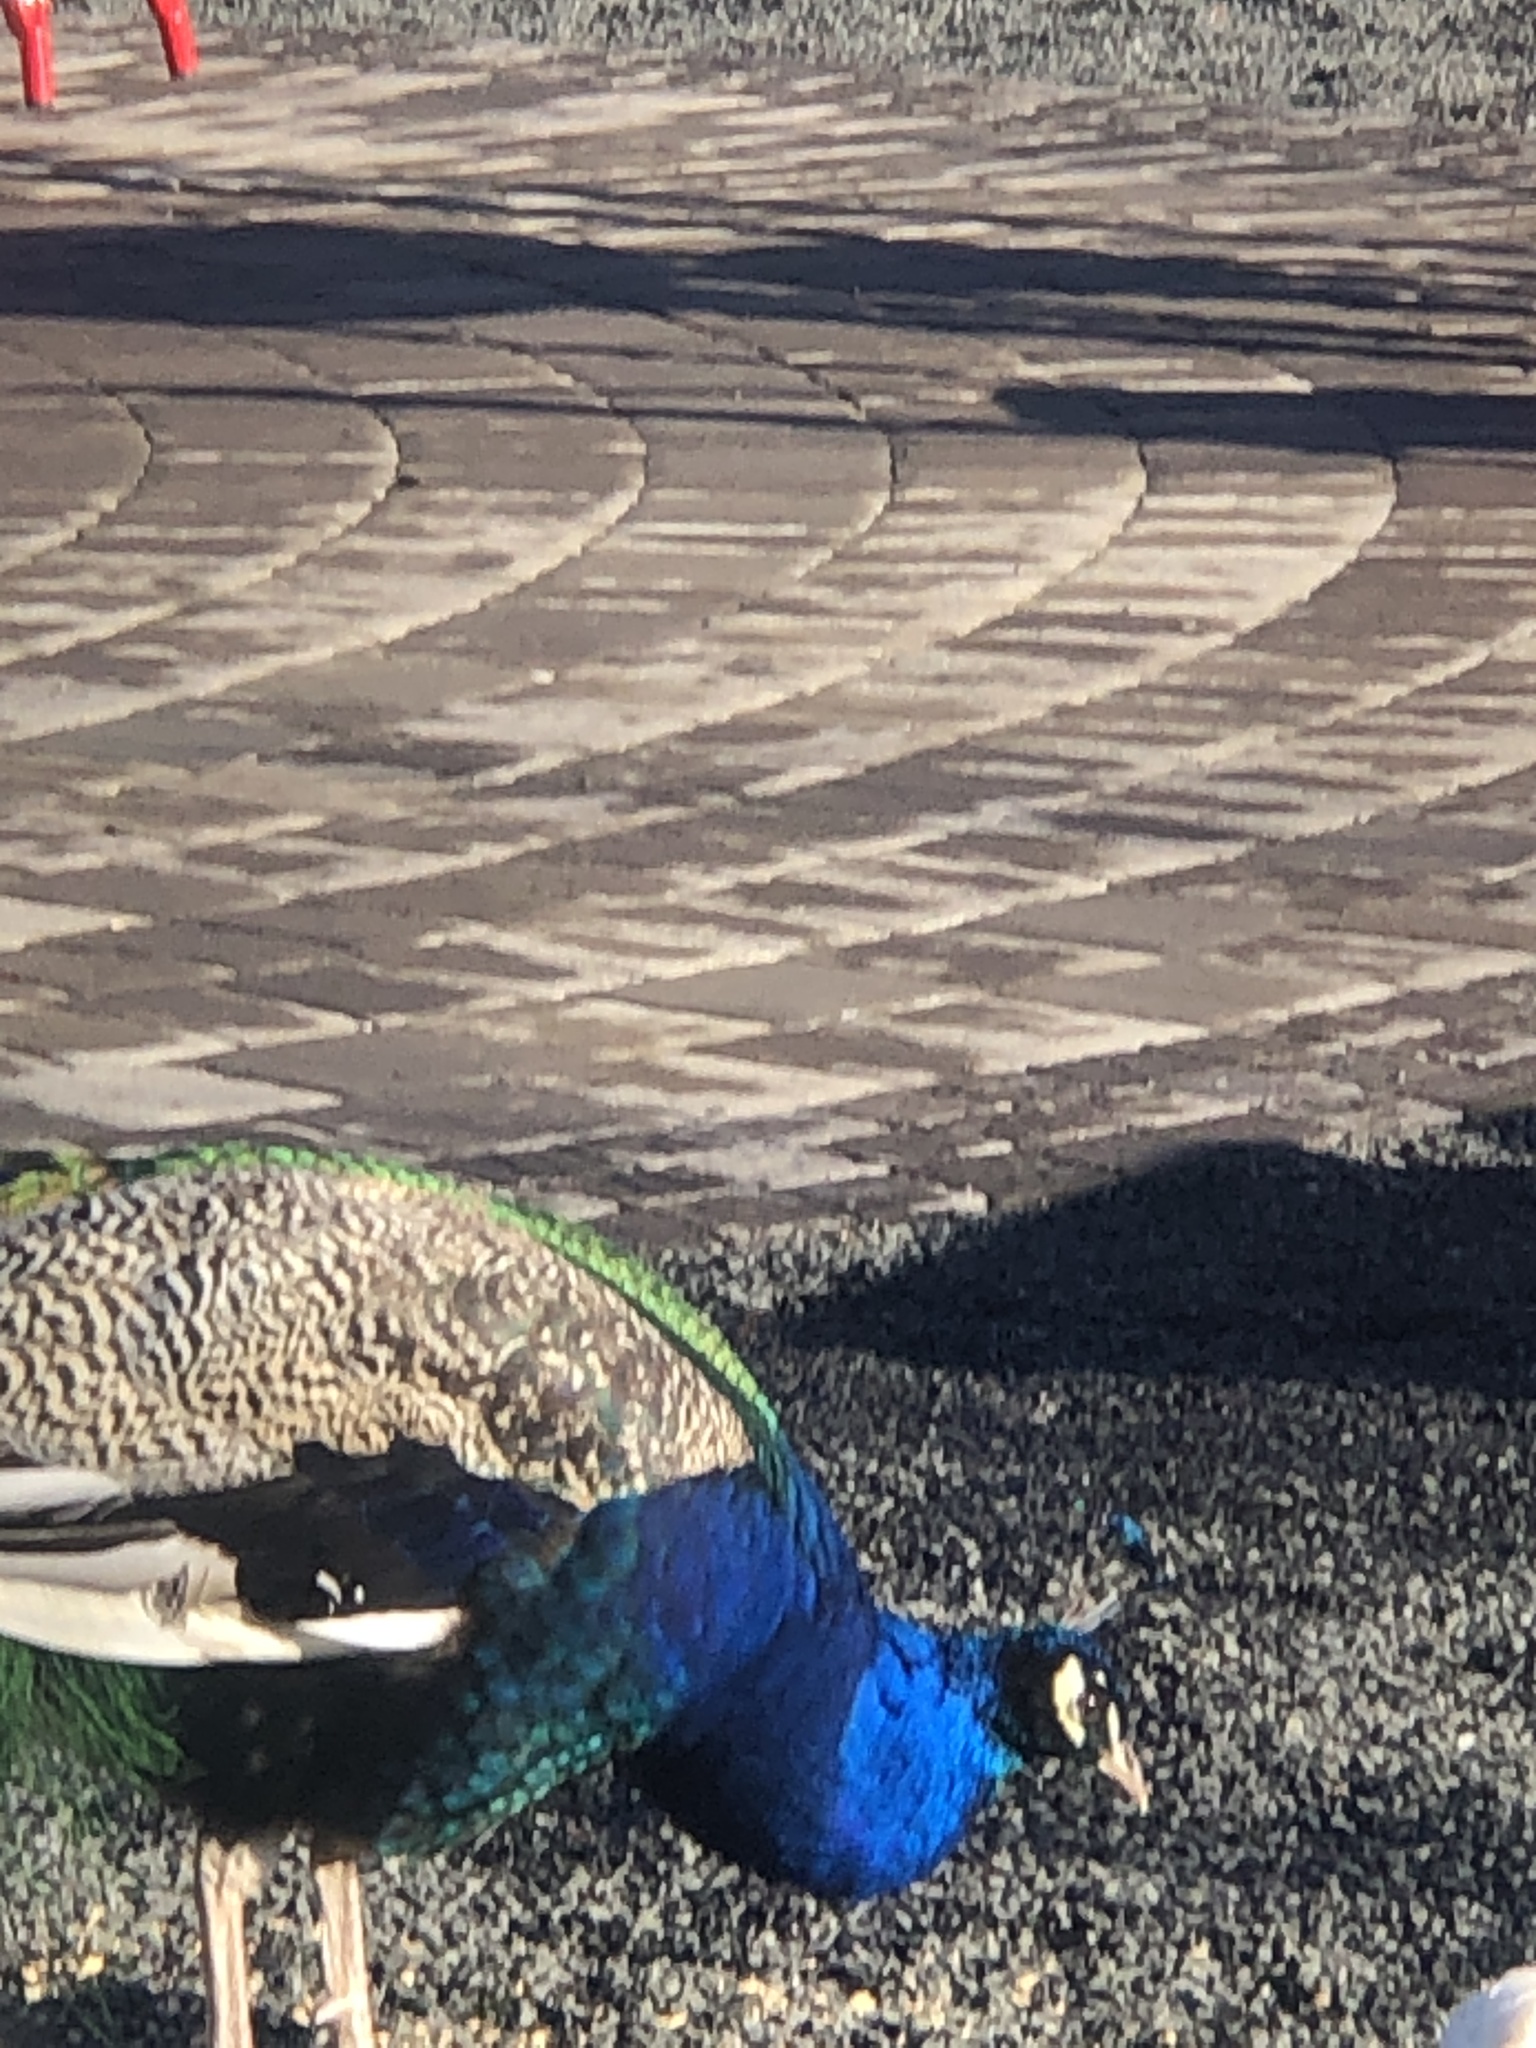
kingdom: Animalia
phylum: Chordata
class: Aves
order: Galliformes
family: Phasianidae
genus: Pavo
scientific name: Pavo cristatus
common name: Indian peafowl
